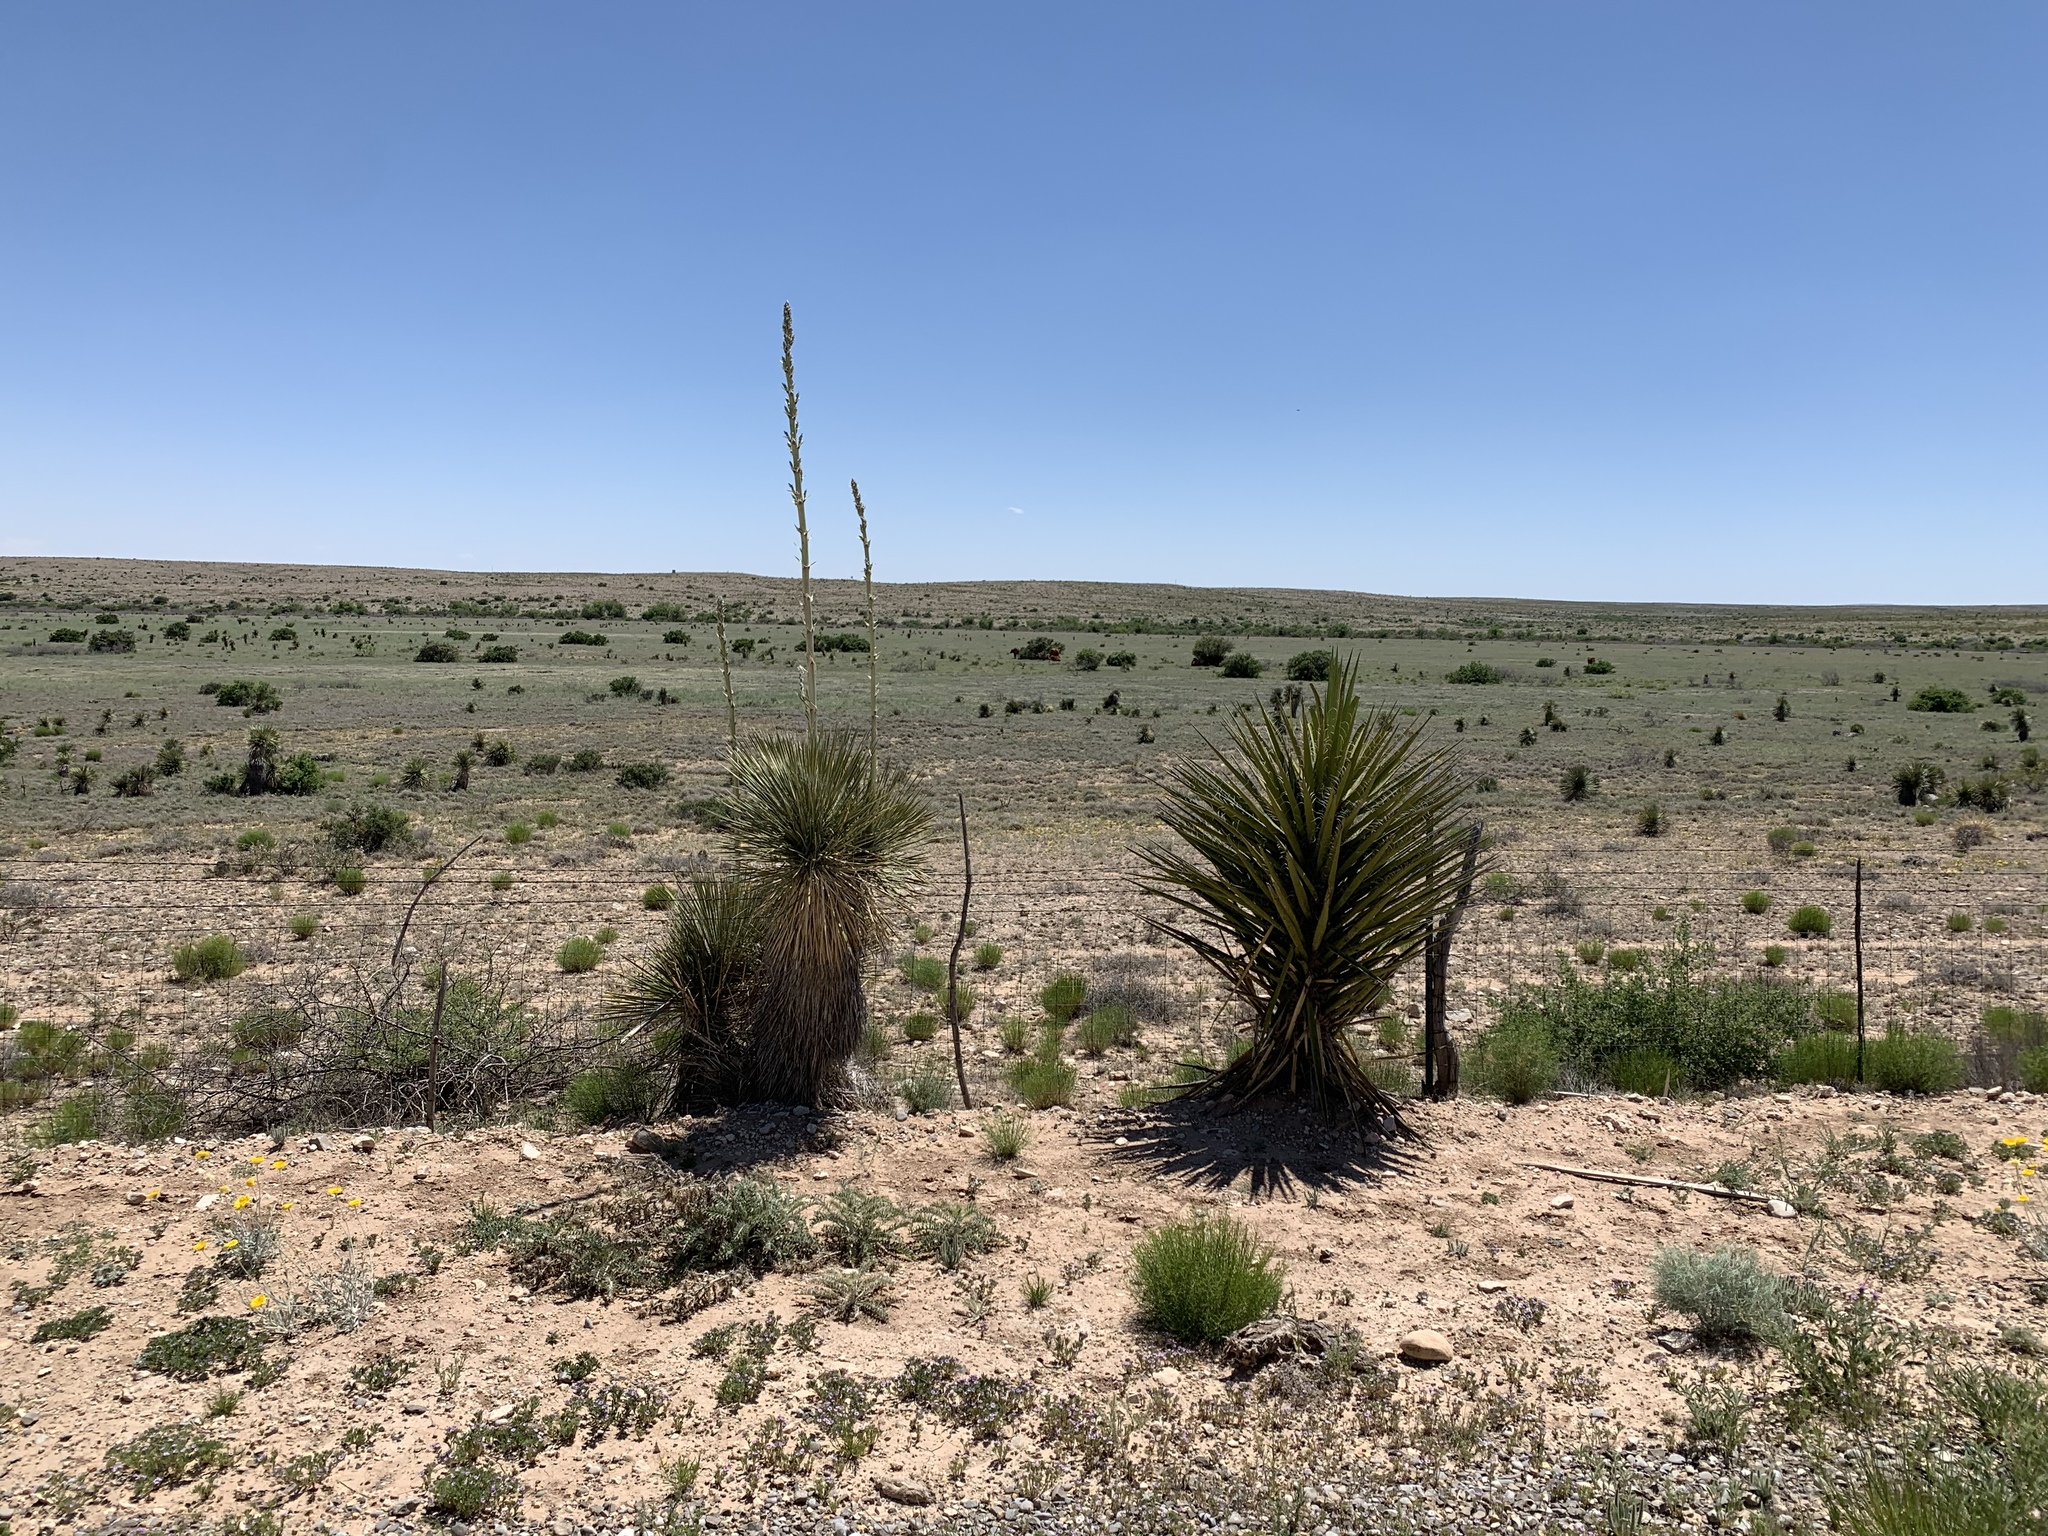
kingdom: Plantae
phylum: Tracheophyta
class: Liliopsida
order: Asparagales
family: Asparagaceae
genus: Yucca
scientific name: Yucca treculiana
